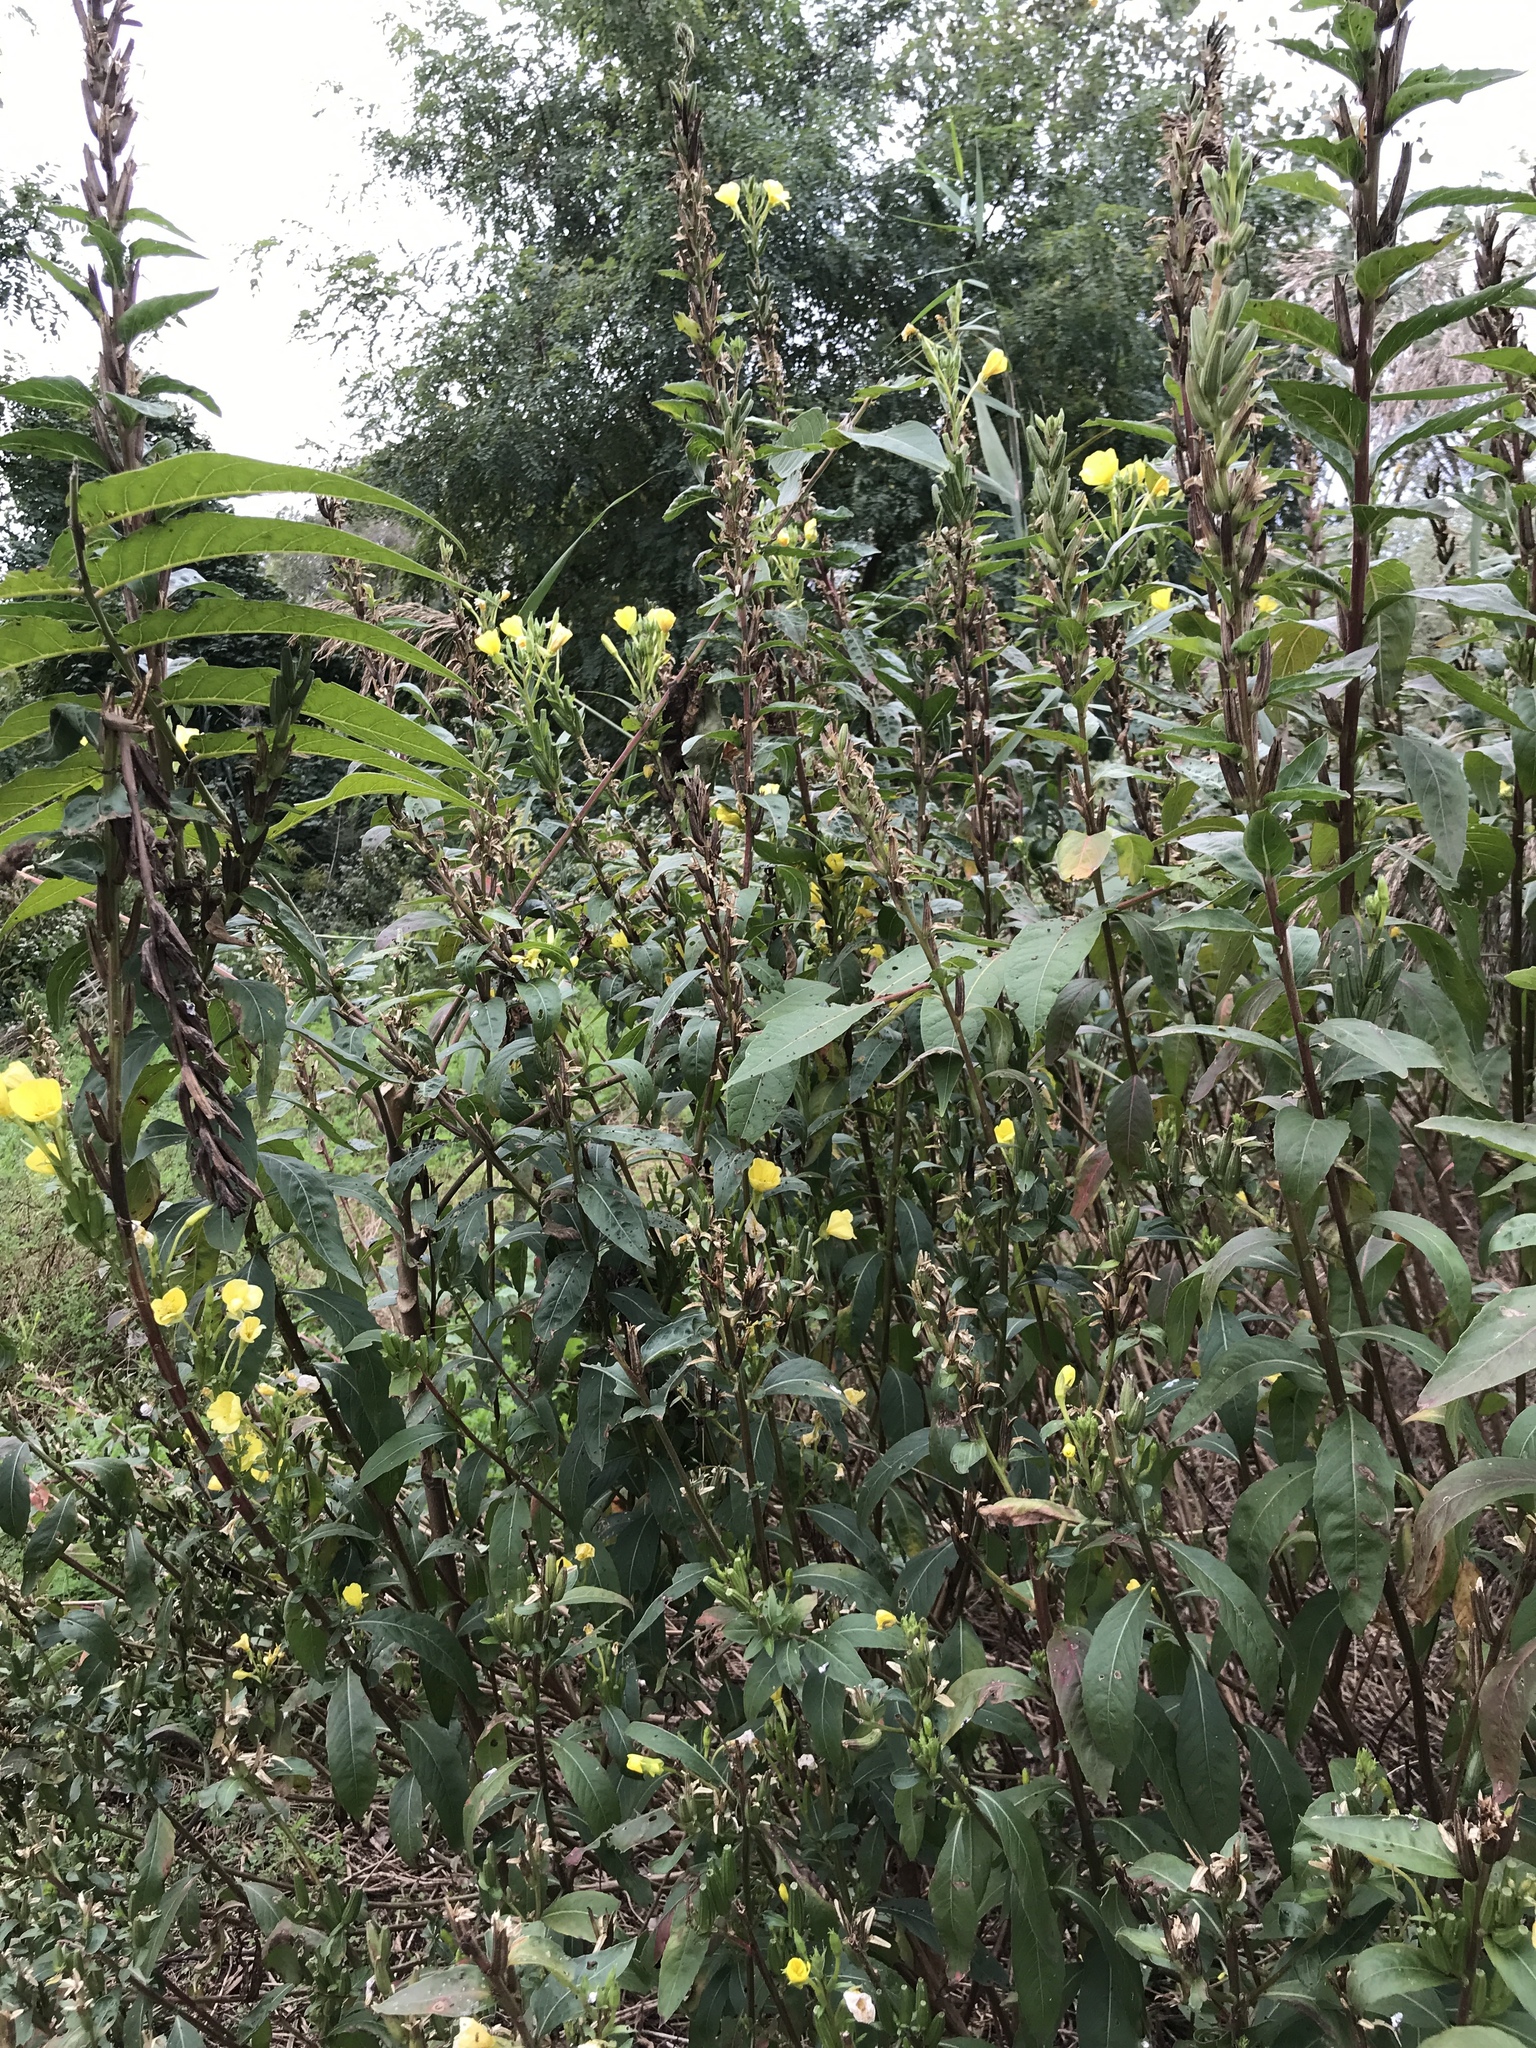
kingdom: Plantae
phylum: Tracheophyta
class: Magnoliopsida
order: Myrtales
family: Onagraceae
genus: Oenothera
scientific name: Oenothera biennis
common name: Common evening-primrose
